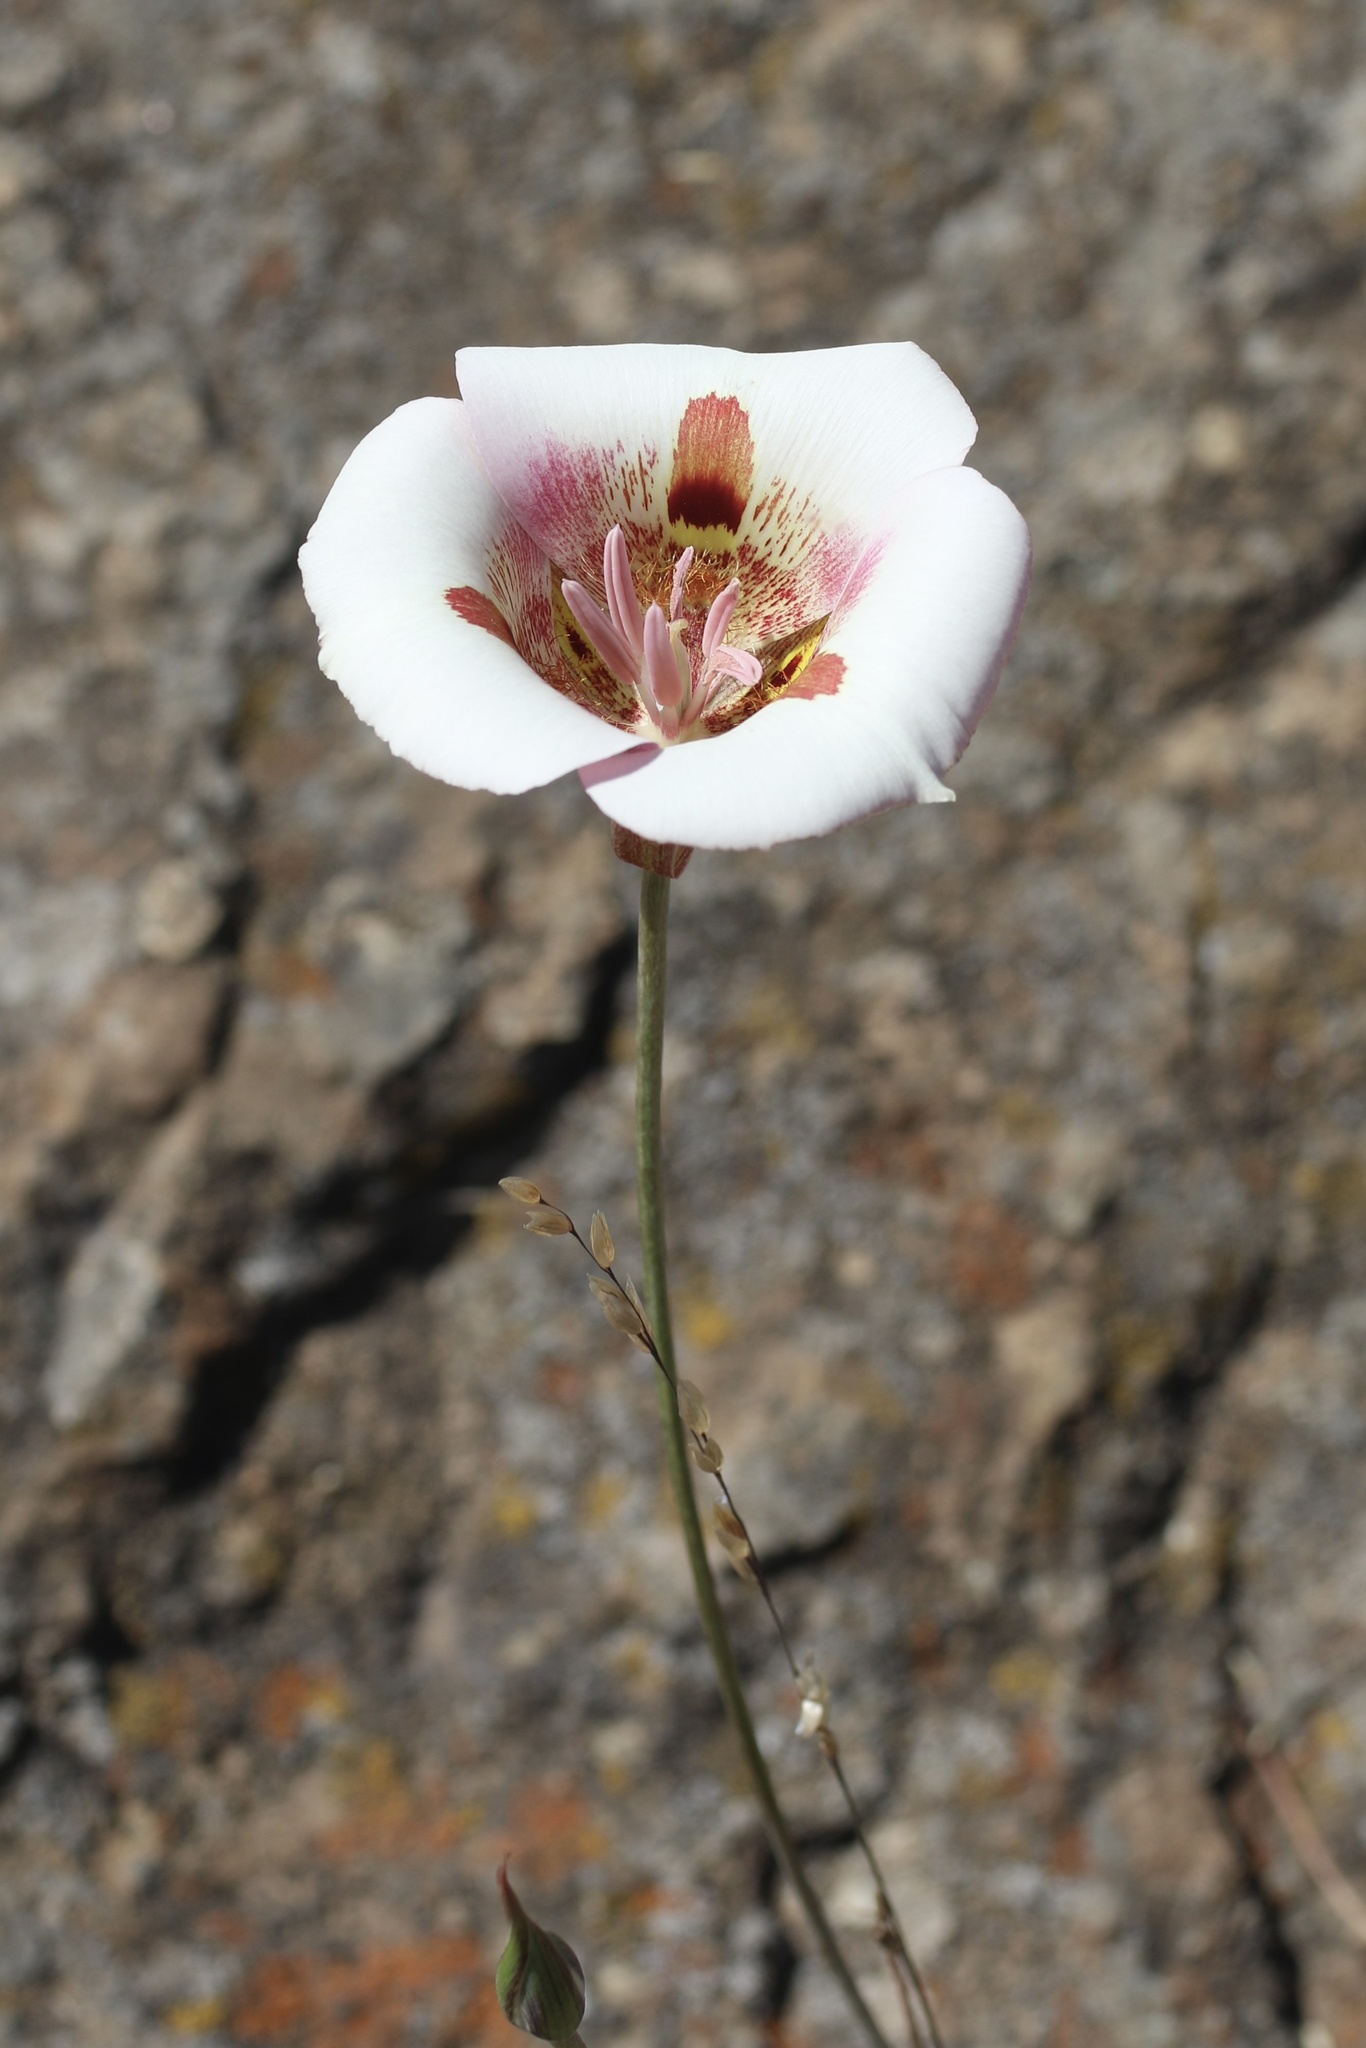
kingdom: Plantae
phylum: Tracheophyta
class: Liliopsida
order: Liliales
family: Liliaceae
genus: Calochortus
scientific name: Calochortus argillosus
